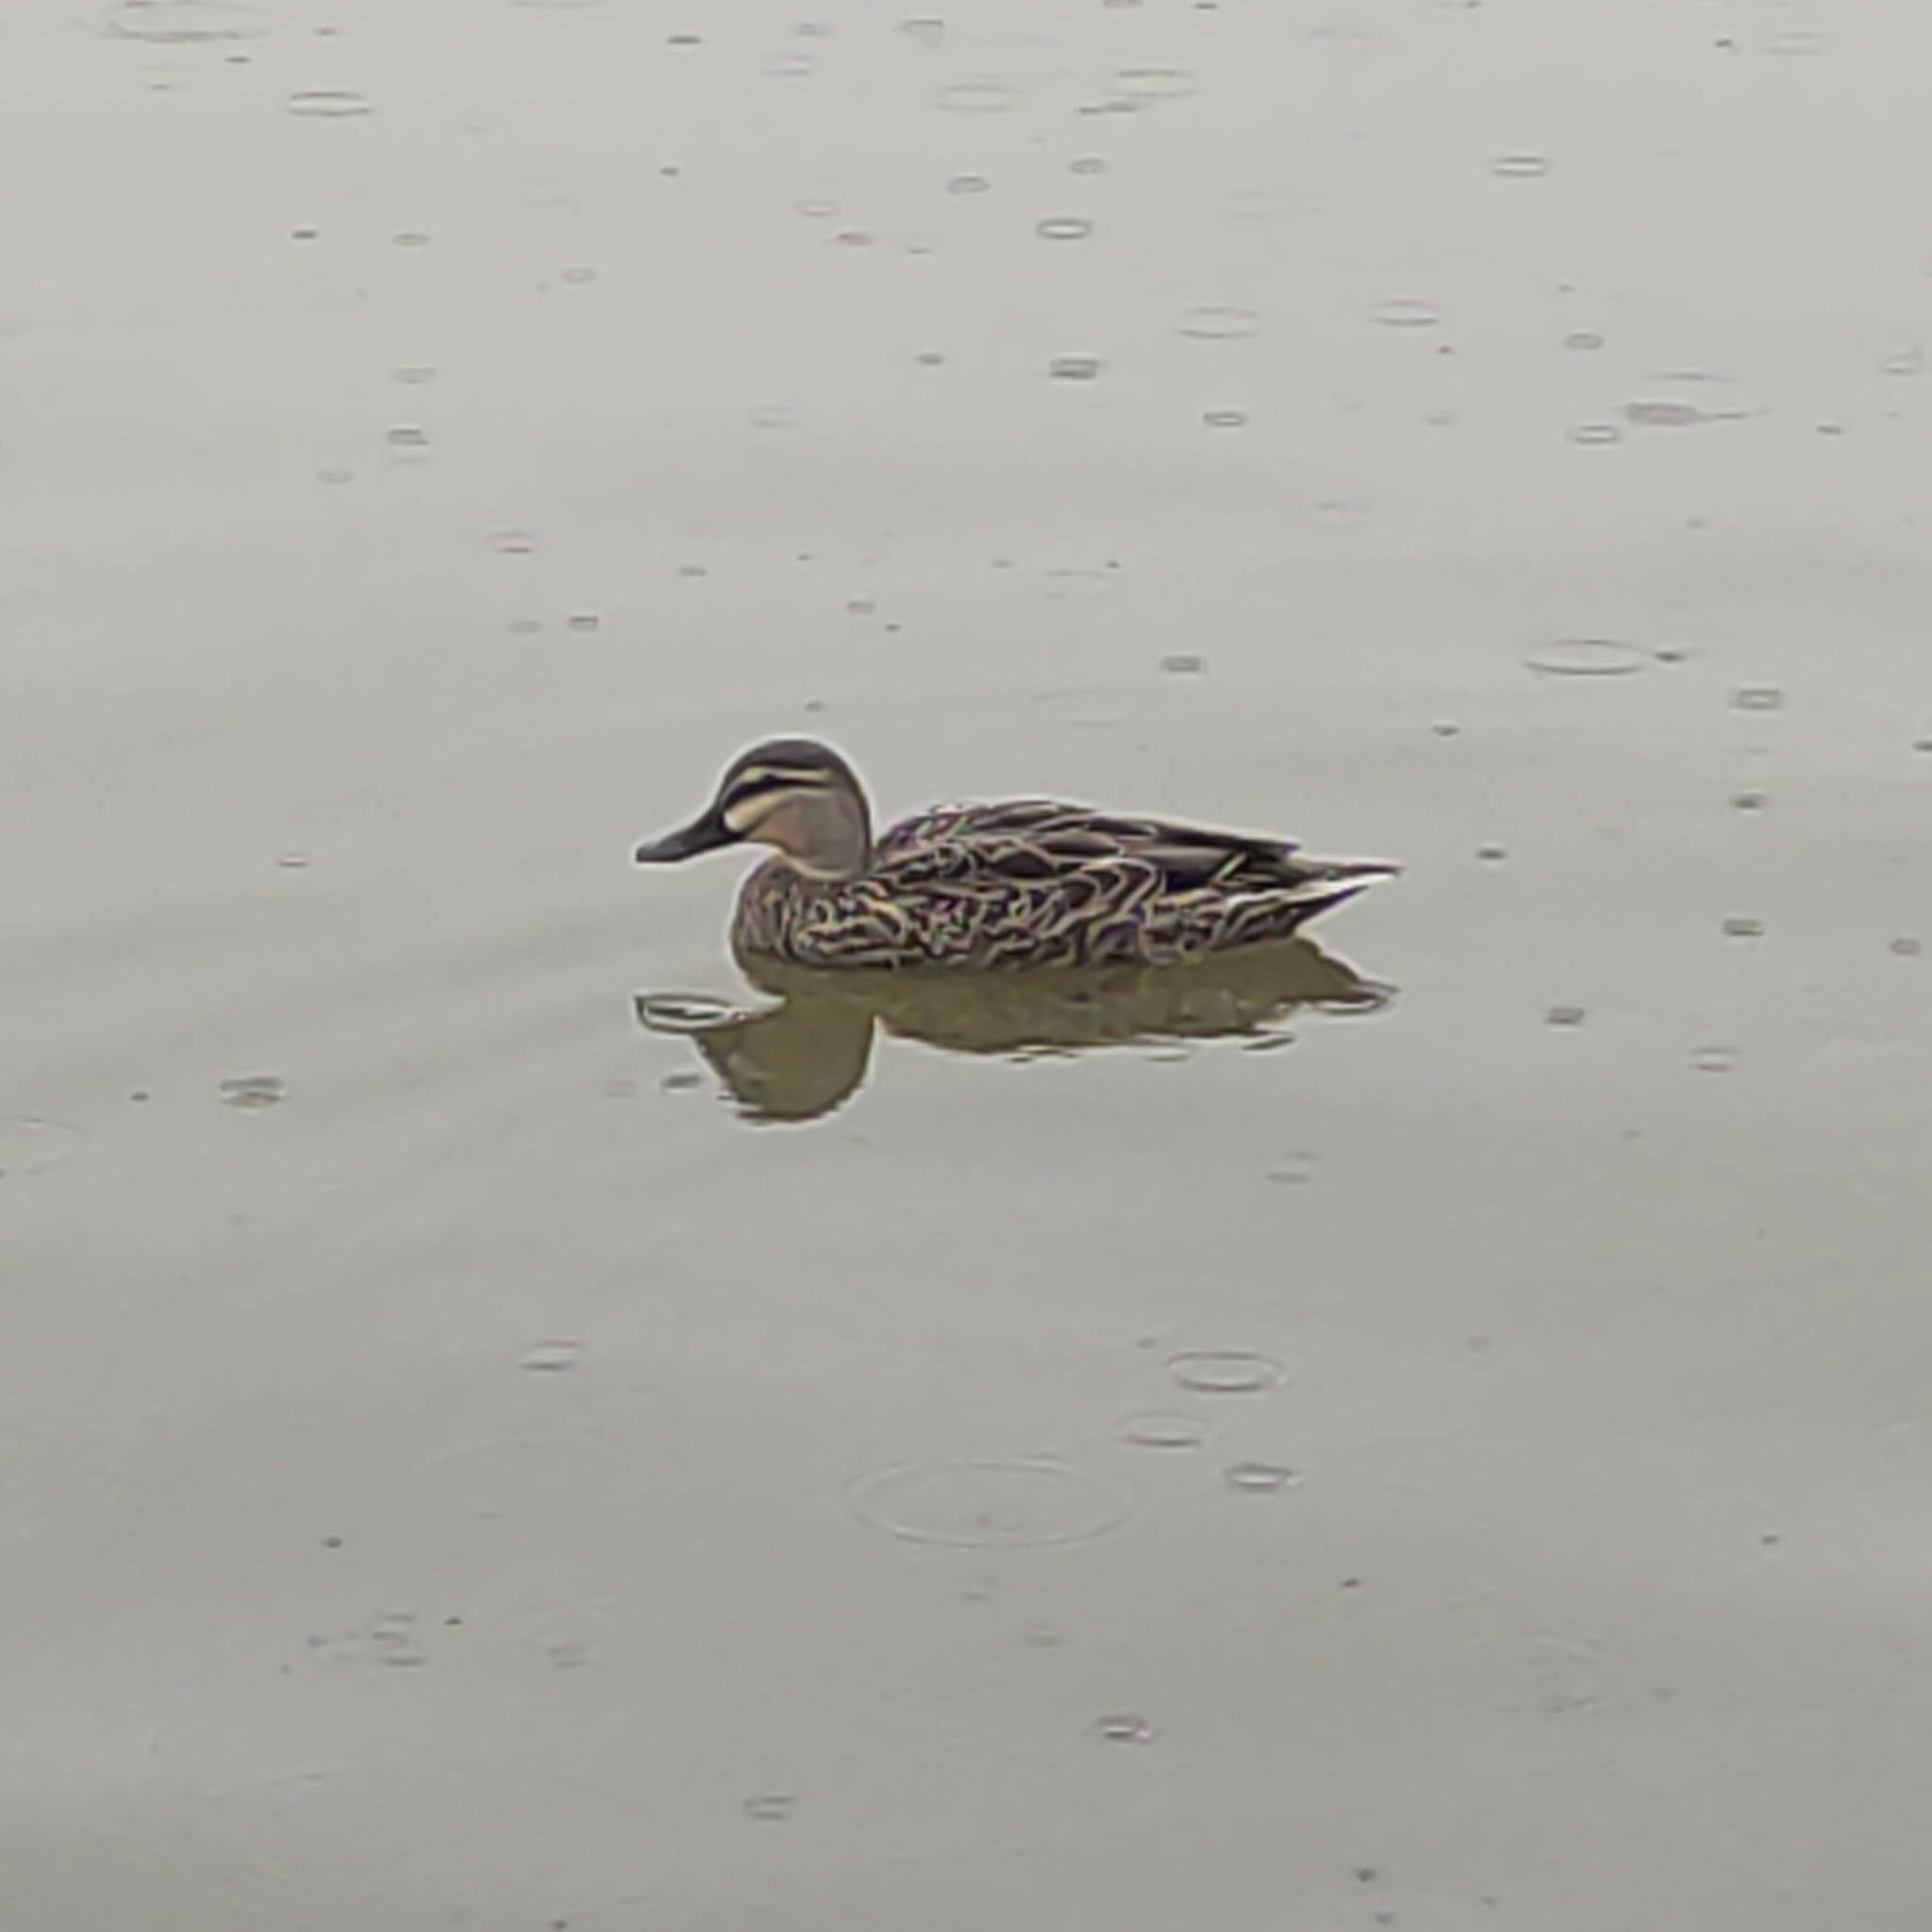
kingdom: Animalia
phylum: Chordata
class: Aves
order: Anseriformes
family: Anatidae
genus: Anas
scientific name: Anas
